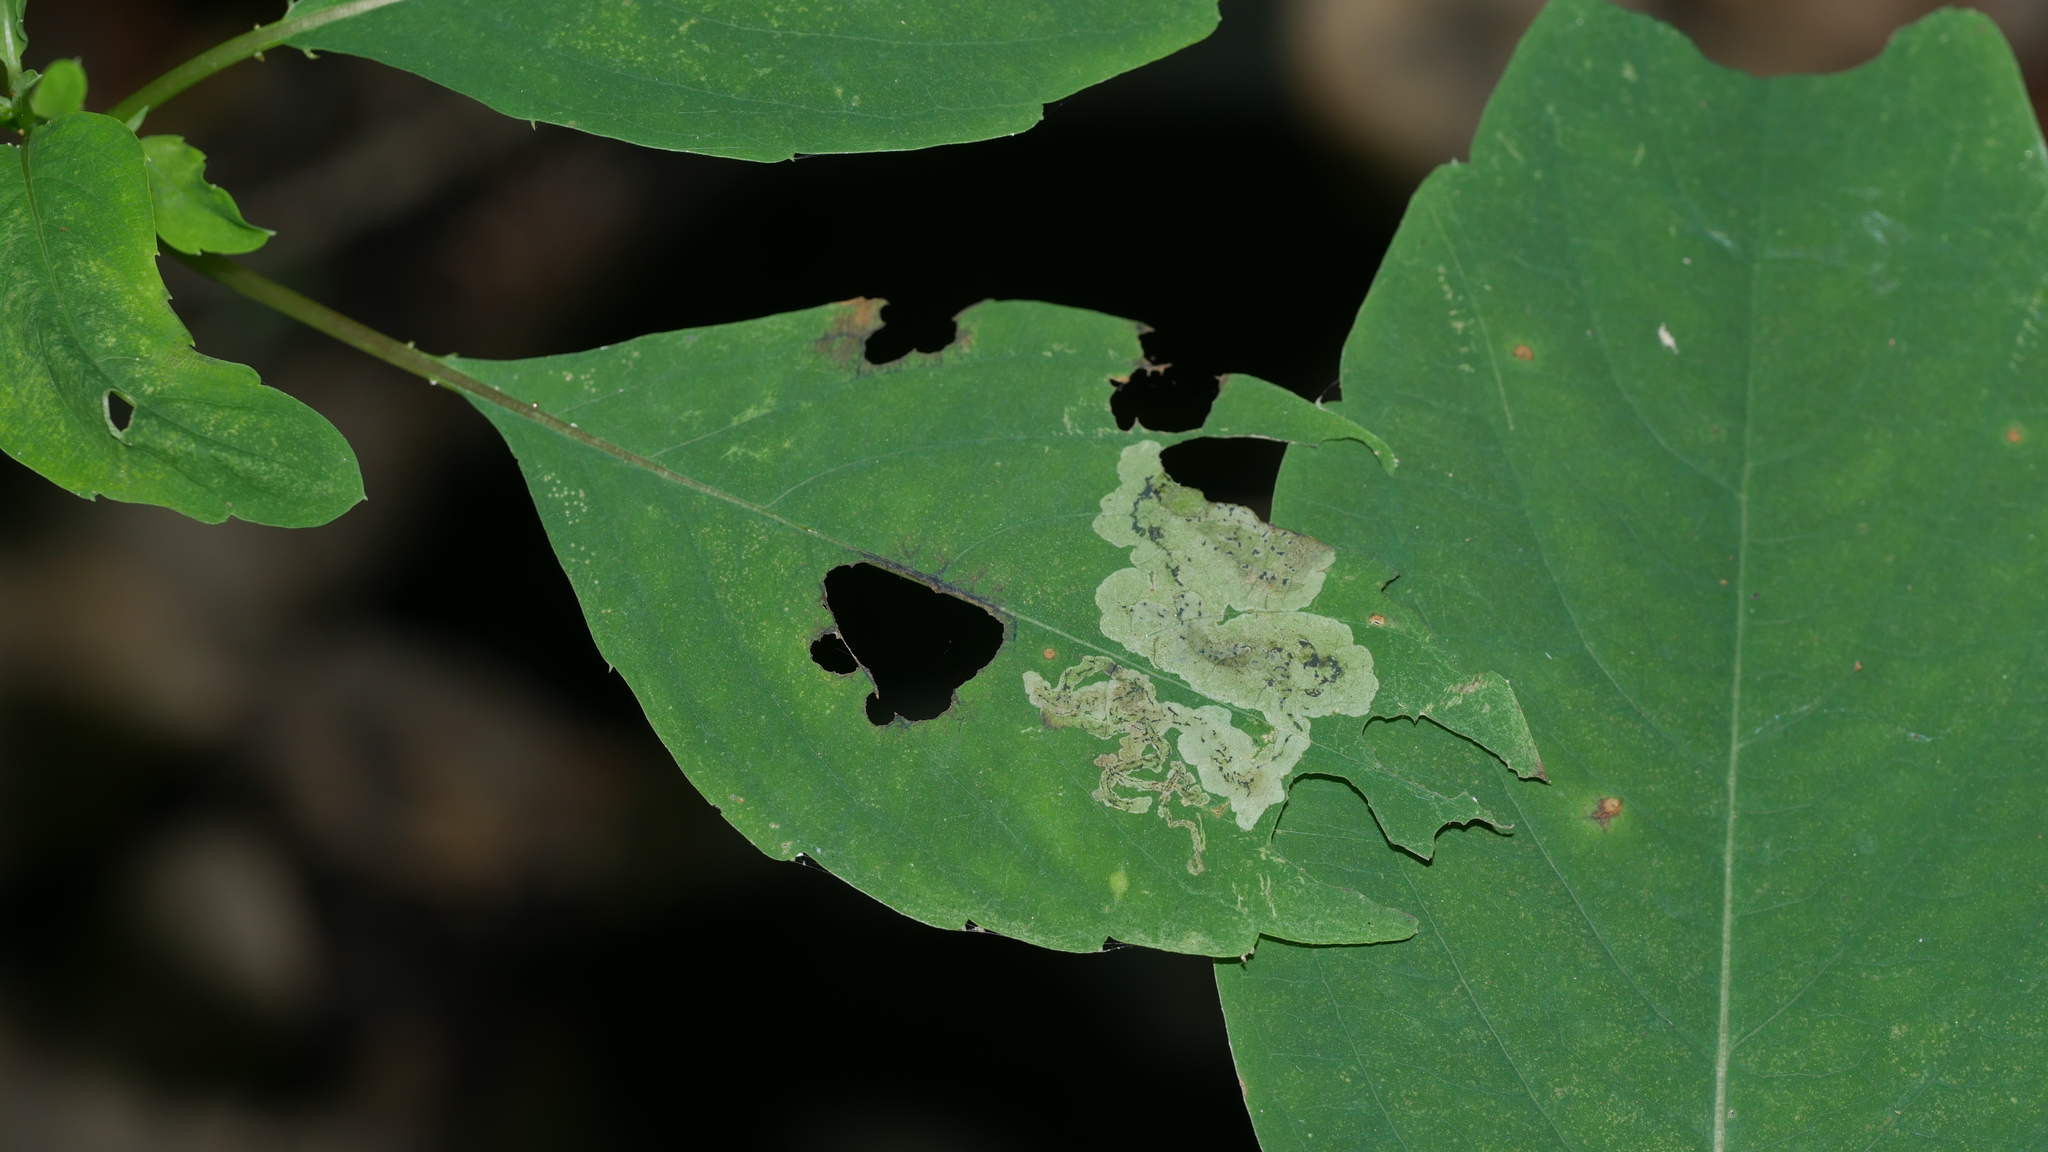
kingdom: Animalia
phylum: Arthropoda
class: Insecta
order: Diptera
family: Agromyzidae
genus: Phytoliriomyza
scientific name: Phytoliriomyza melampyga
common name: Jewelweed leaf-miner fly
